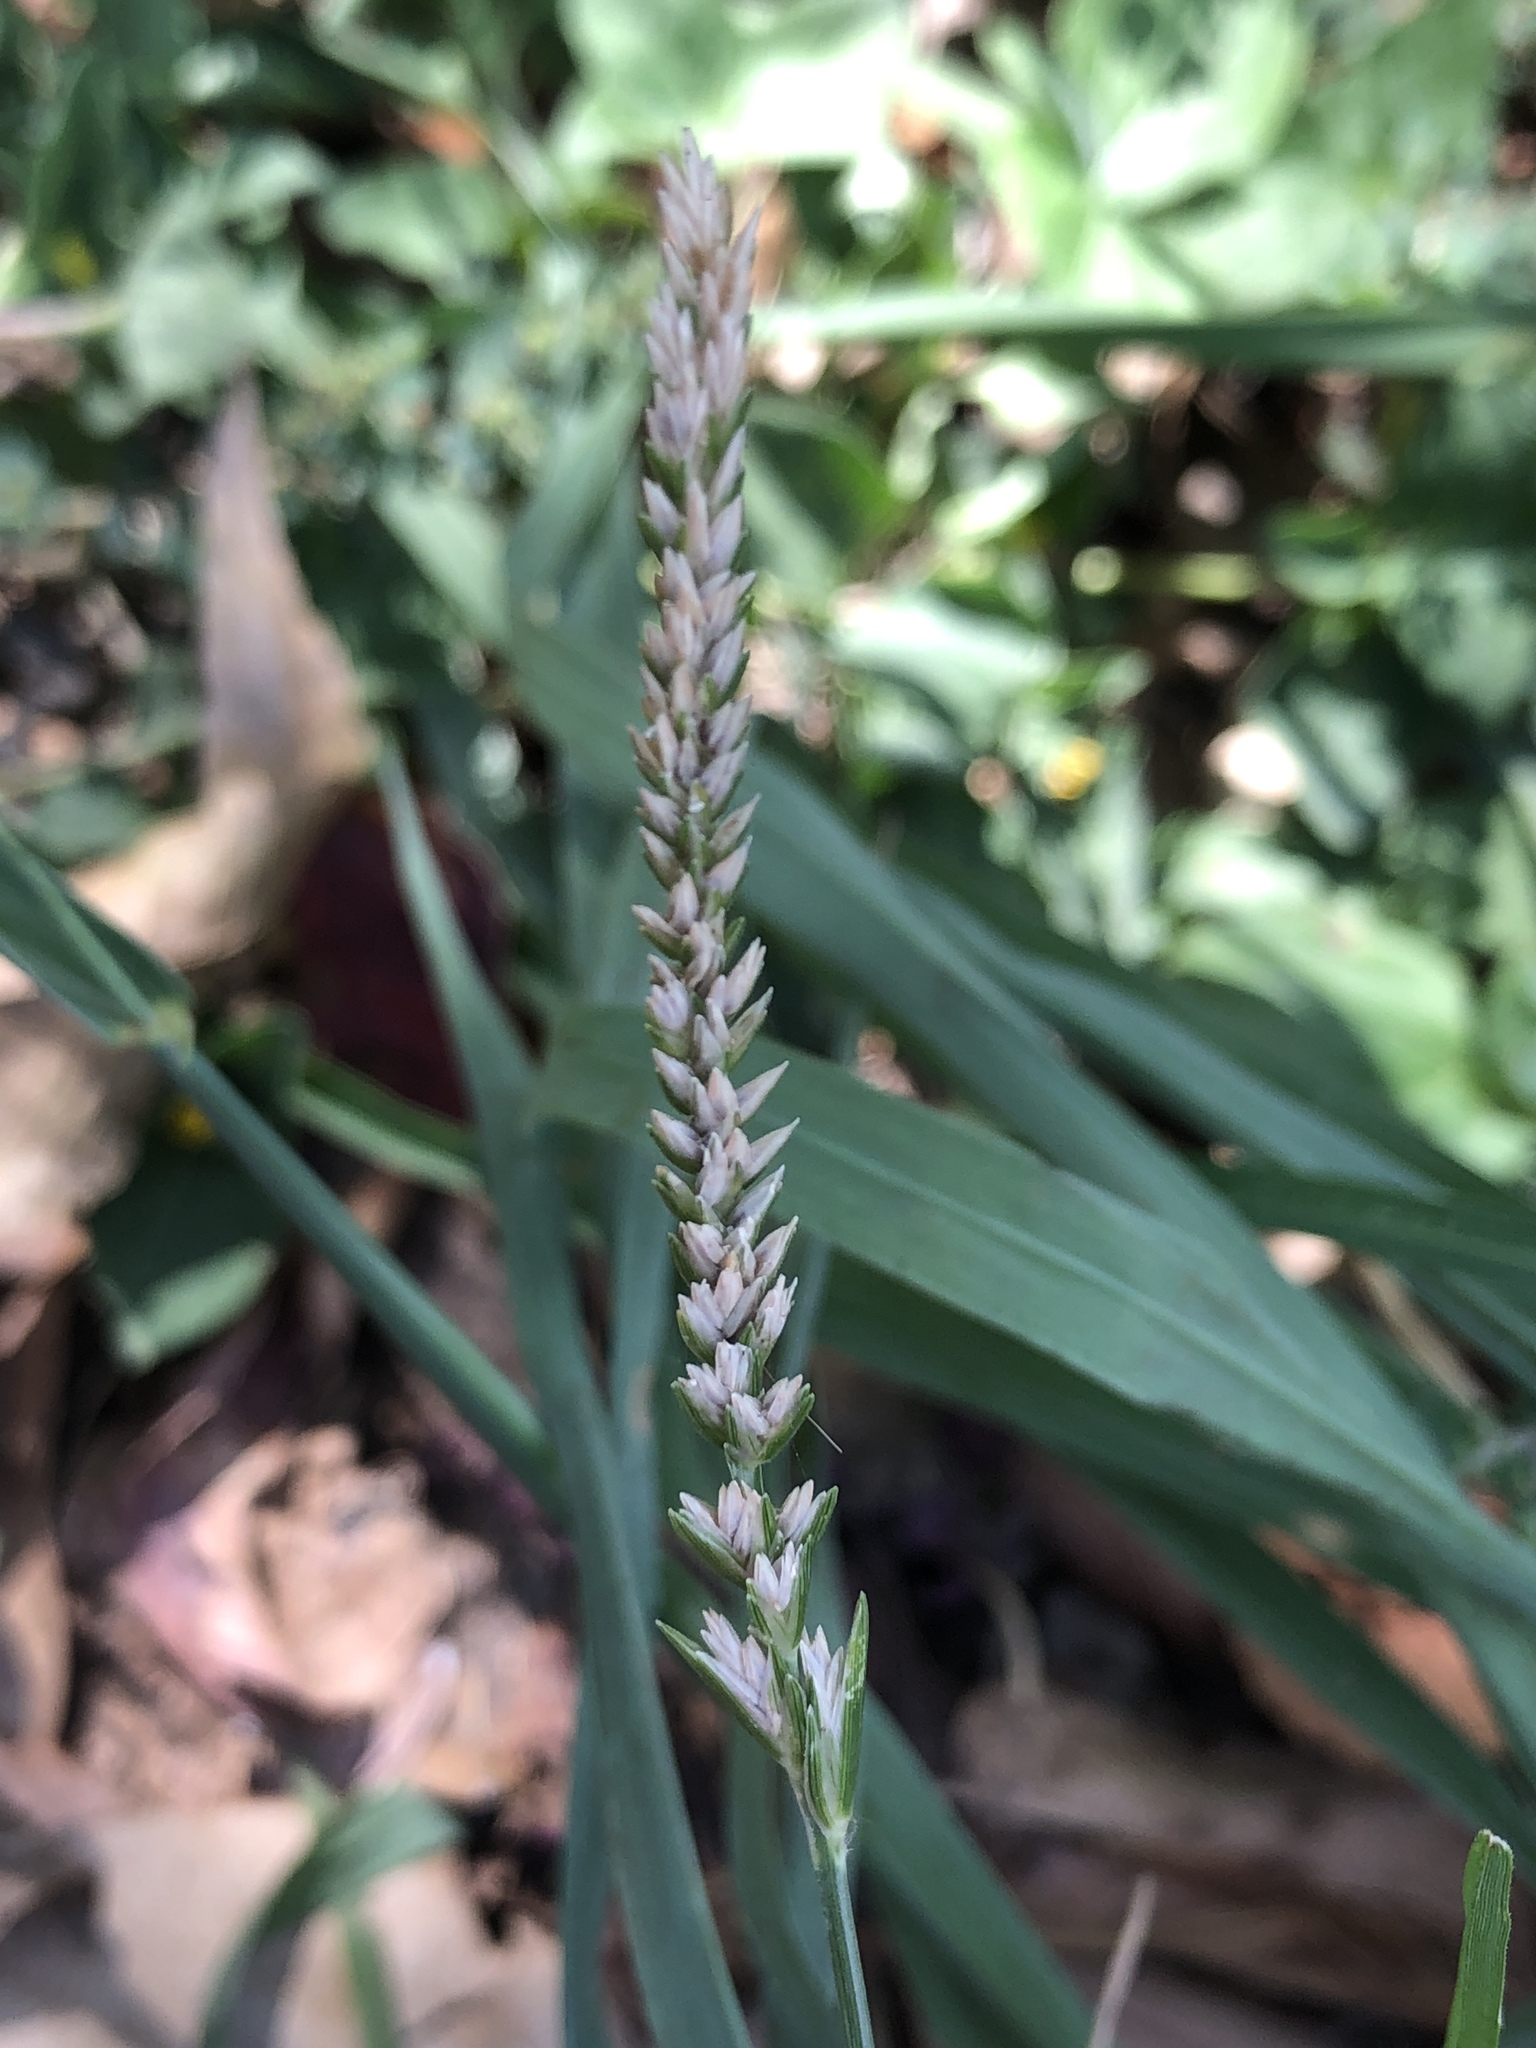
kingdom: Plantae
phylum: Tracheophyta
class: Liliopsida
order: Poales
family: Poaceae
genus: Eleusine
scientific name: Eleusine indica
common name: Yard-grass
